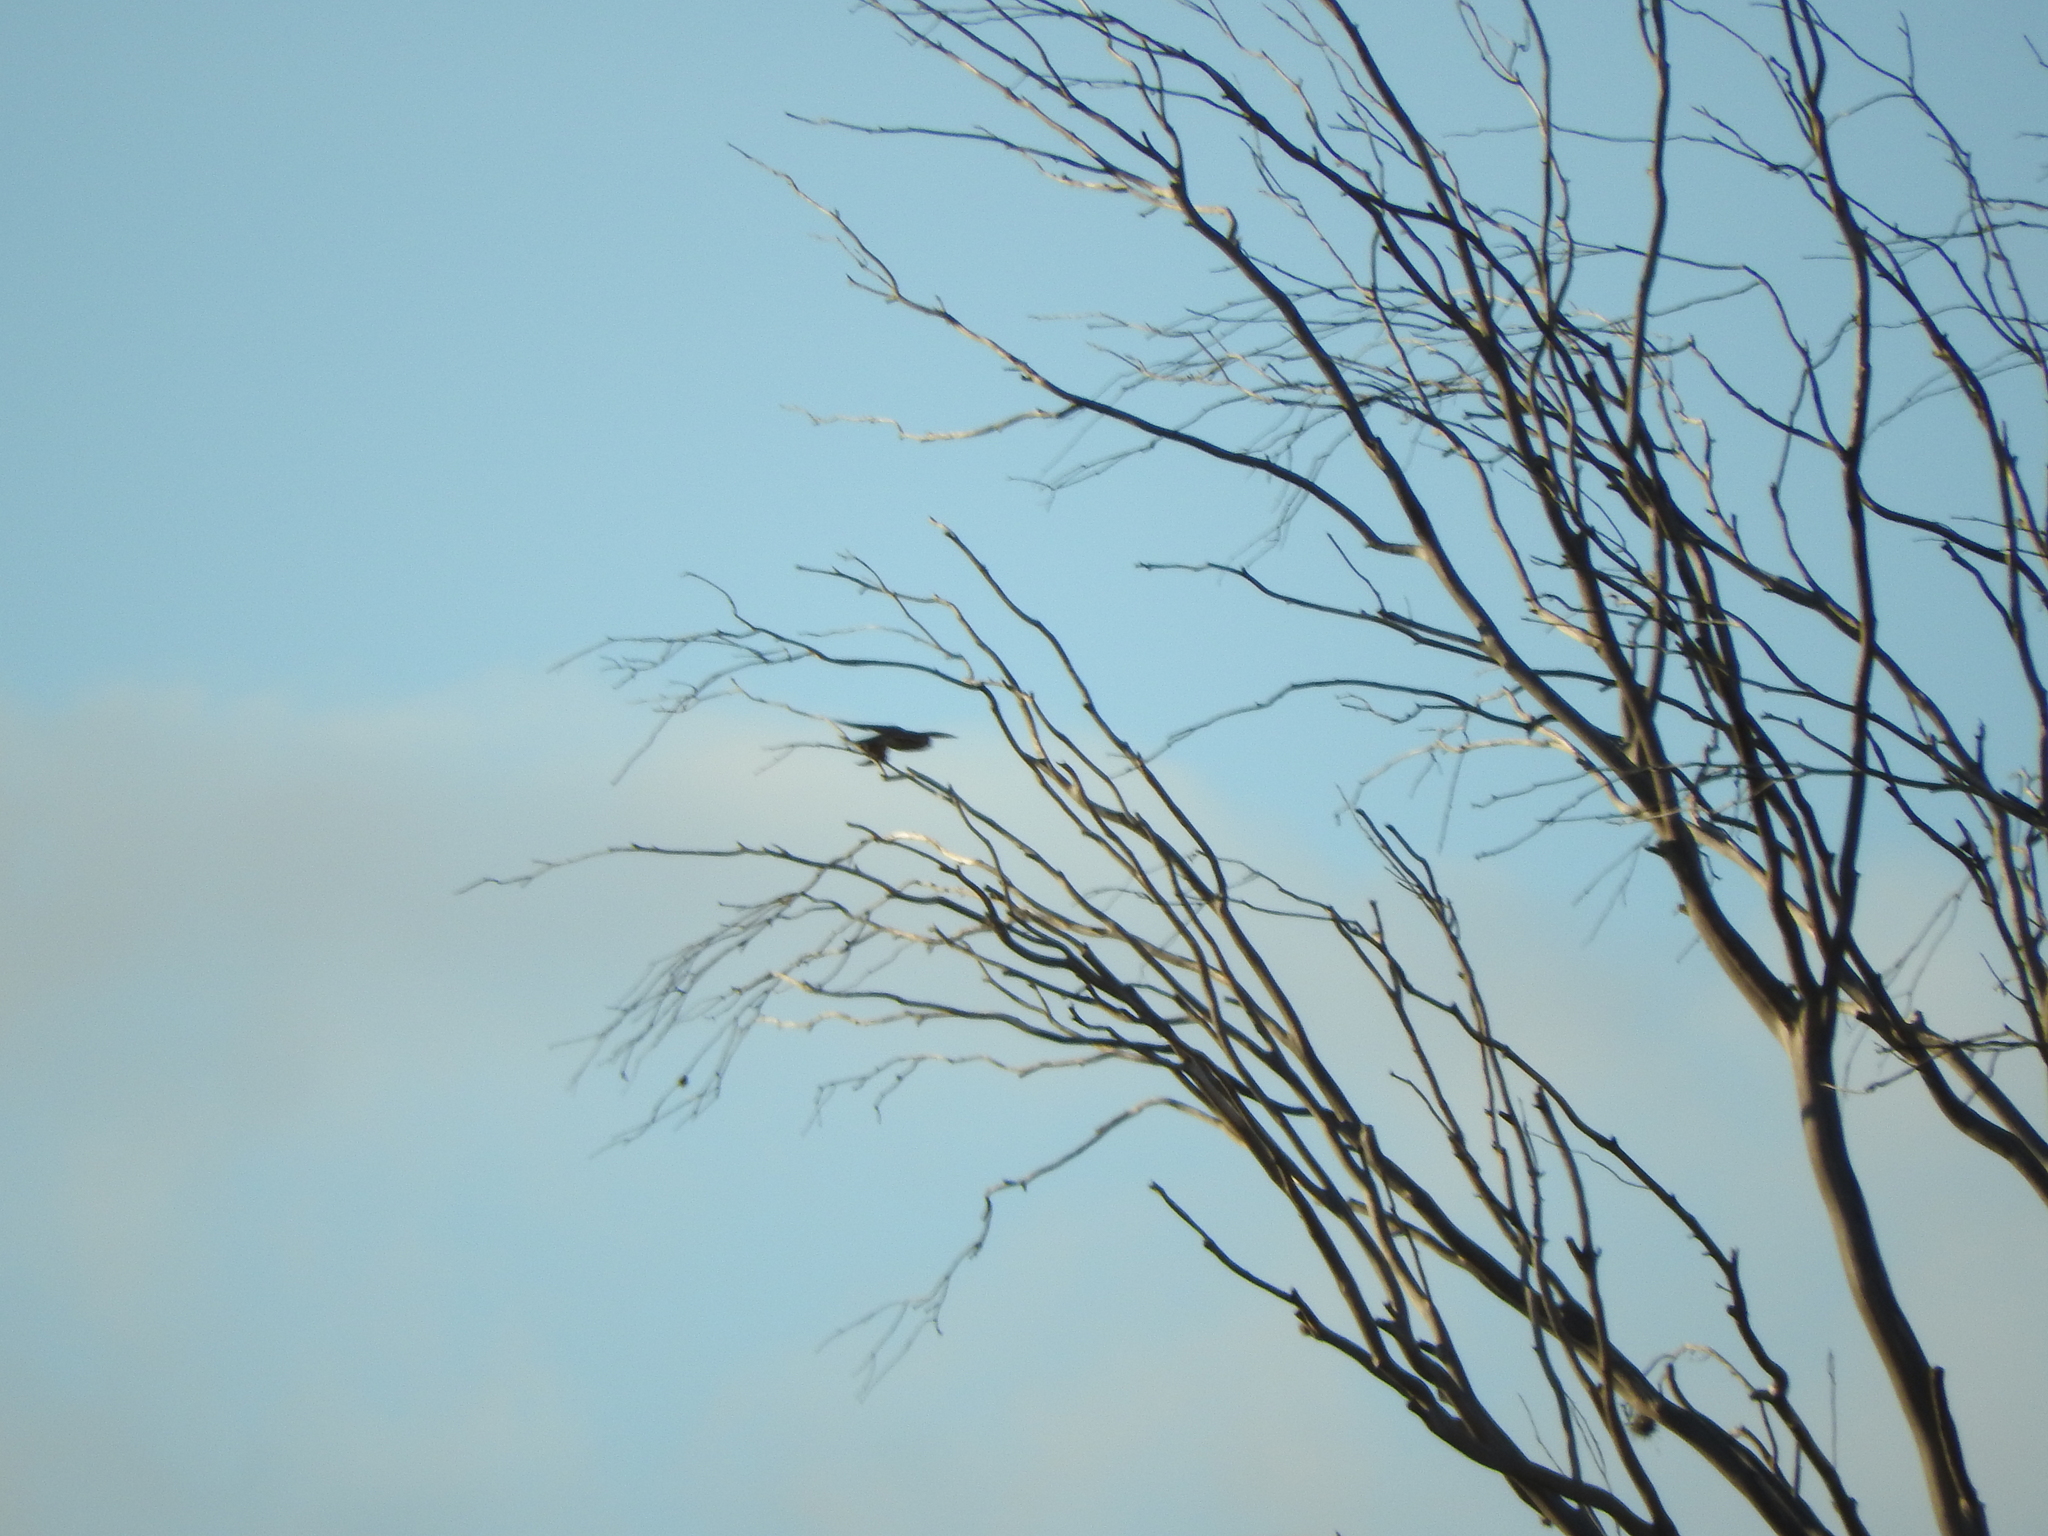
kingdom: Animalia
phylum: Chordata
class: Aves
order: Falconiformes
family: Falconidae
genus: Falco
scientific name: Falco columbarius
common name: Merlin
